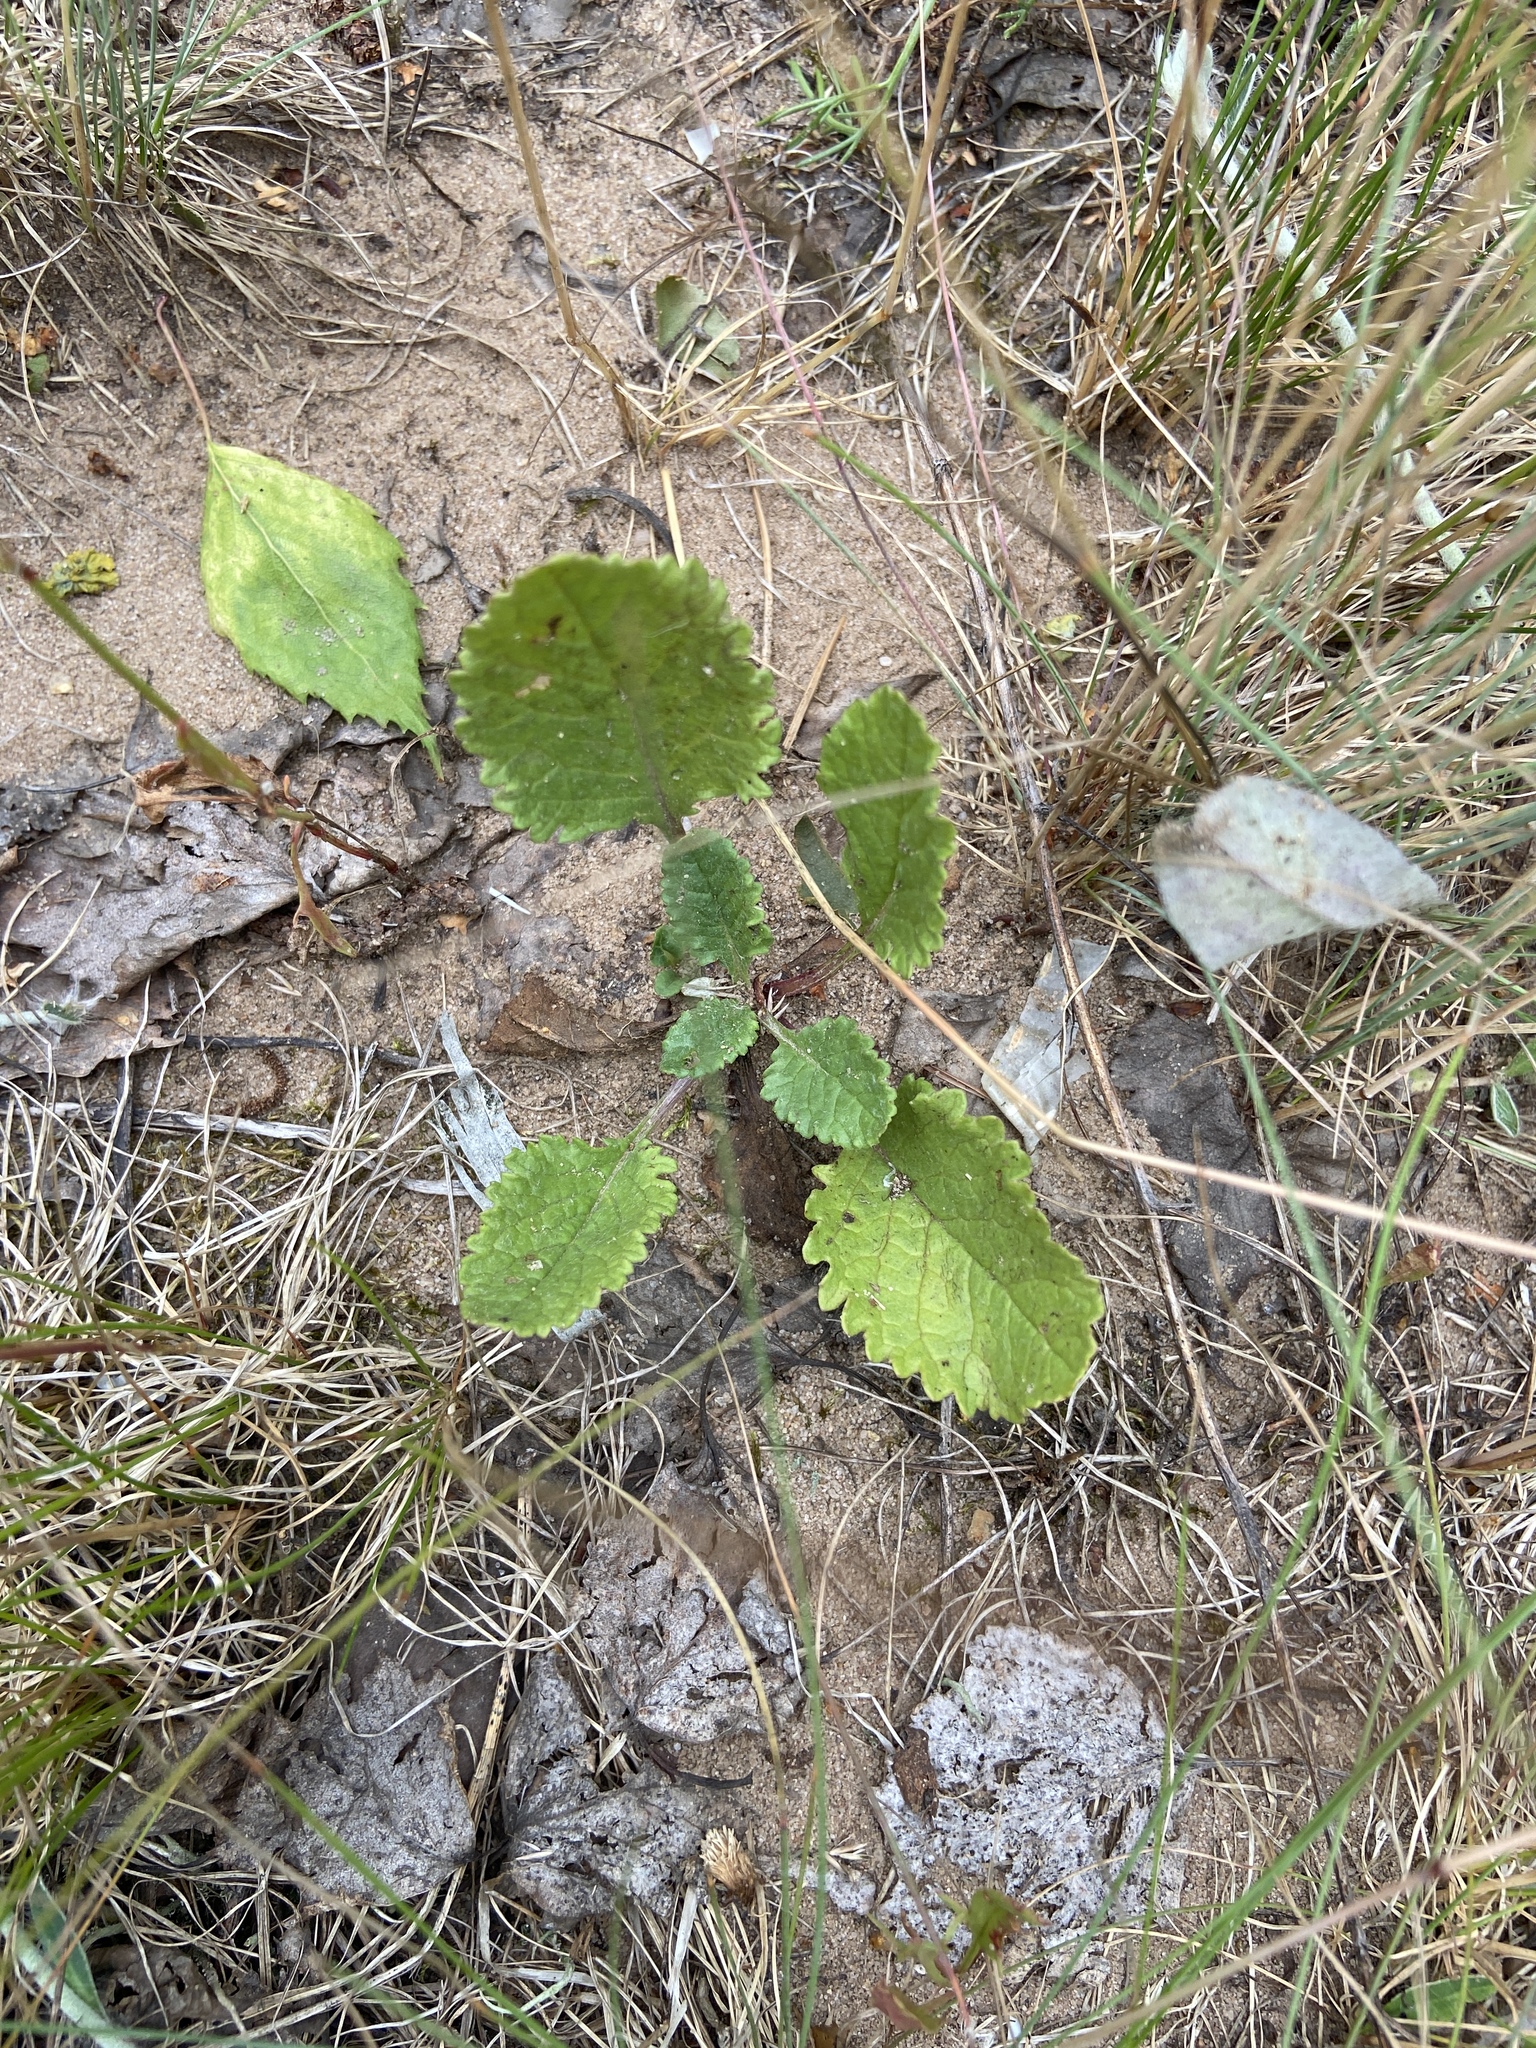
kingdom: Plantae
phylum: Tracheophyta
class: Magnoliopsida
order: Asterales
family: Asteraceae
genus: Jacobaea
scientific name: Jacobaea vulgaris
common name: Stinking willie
